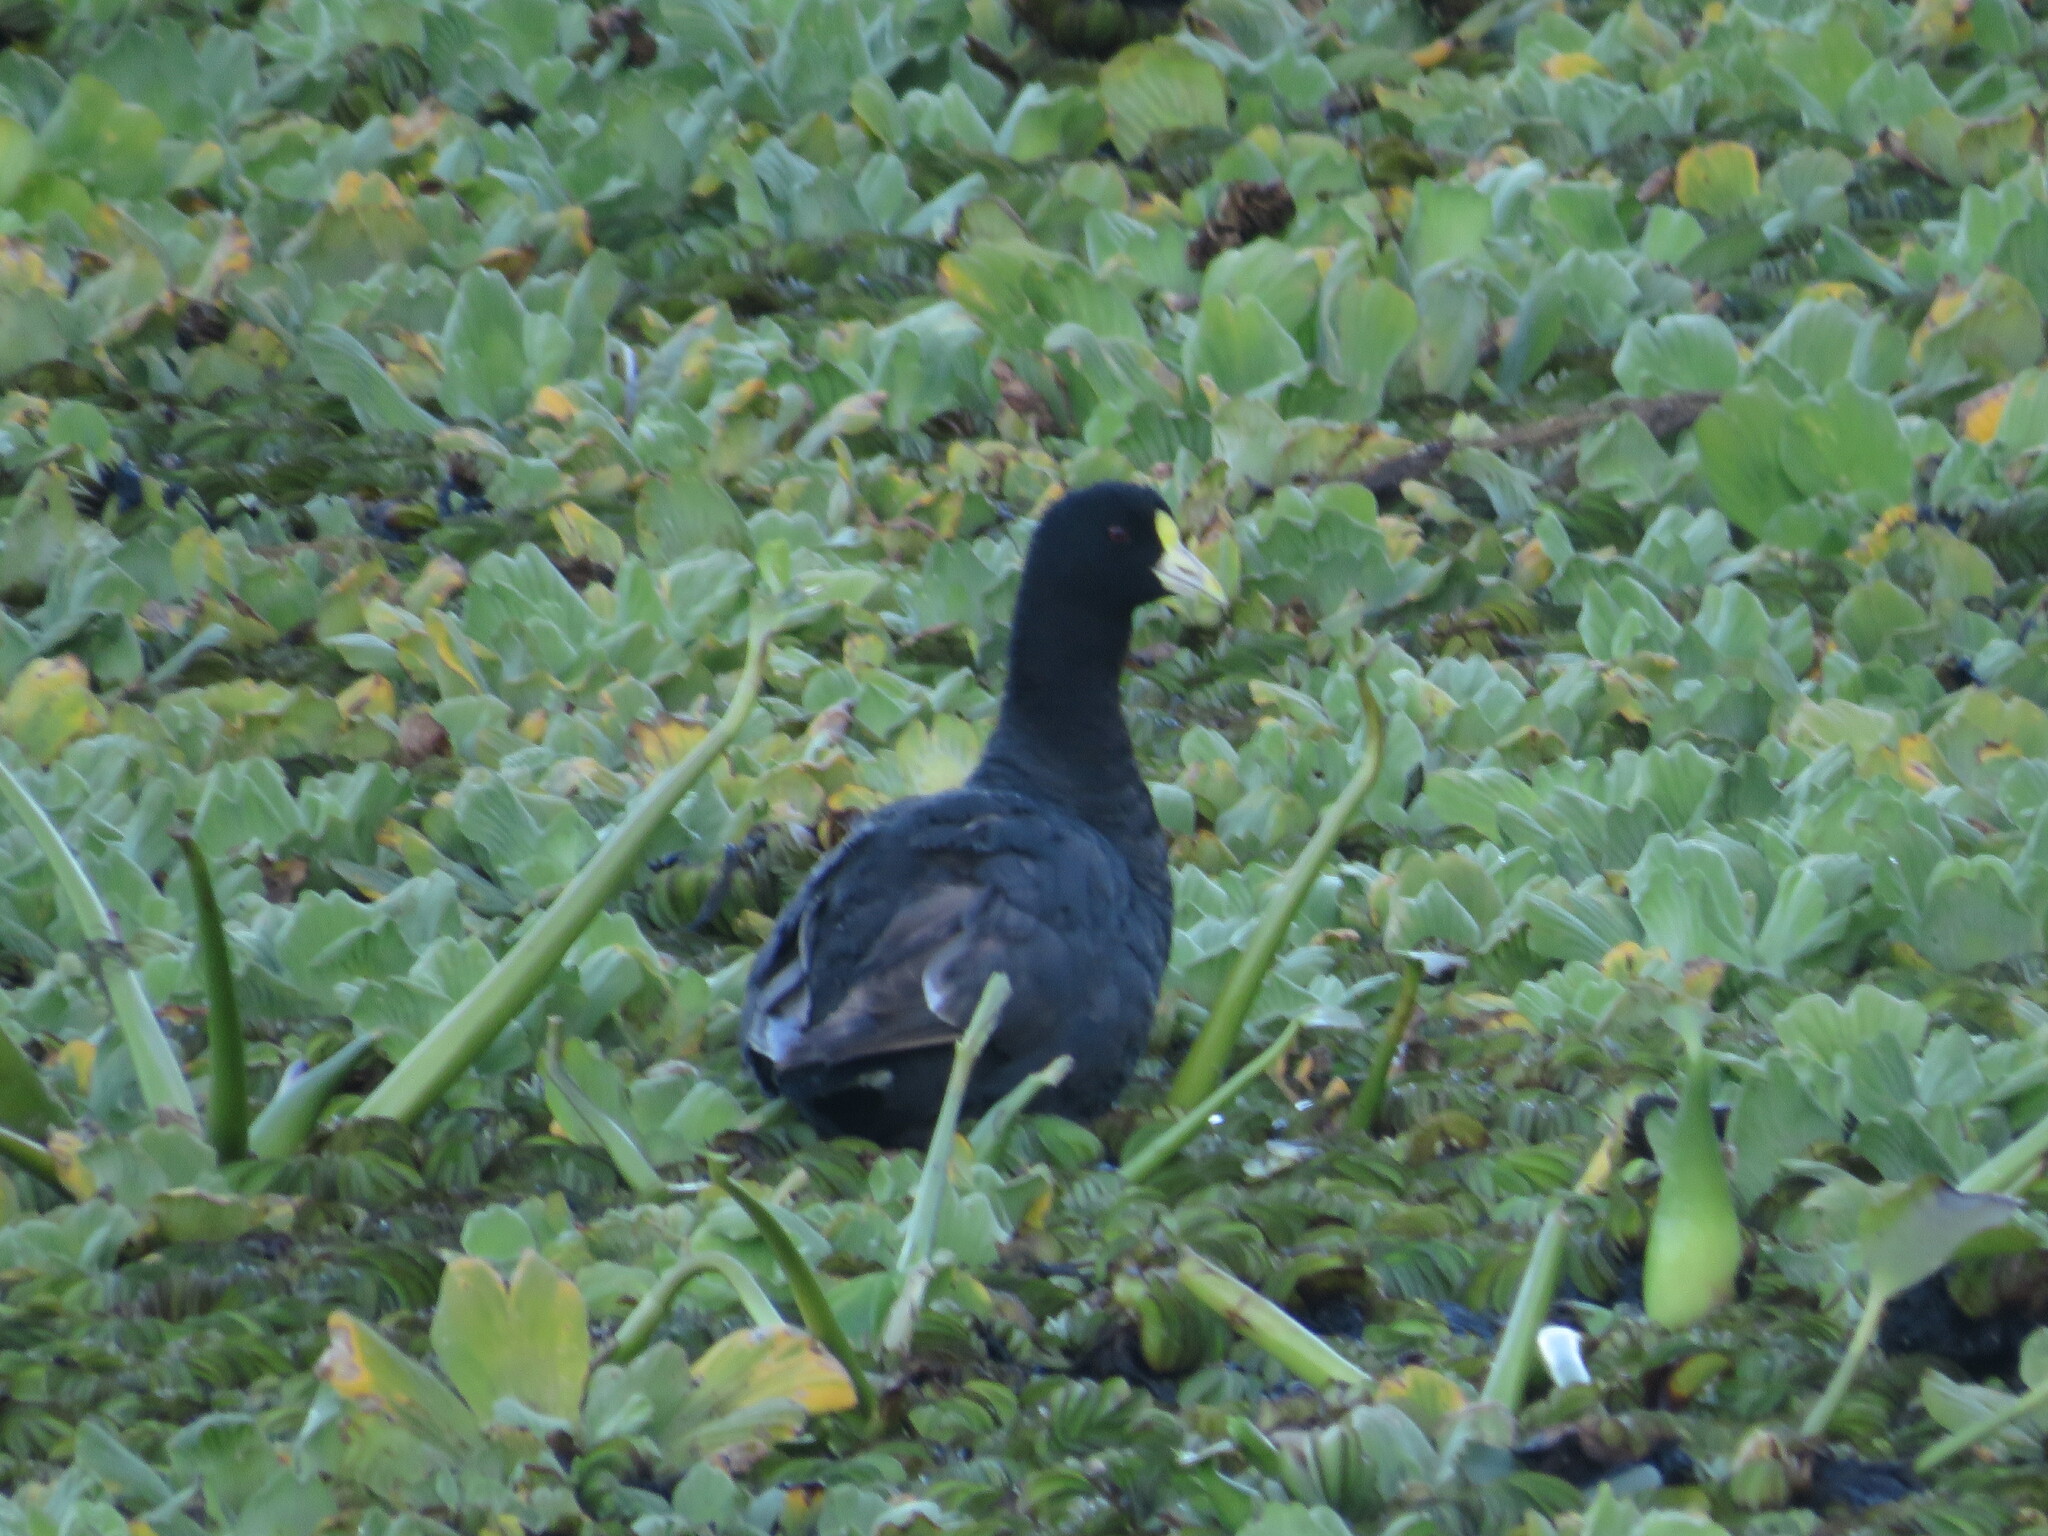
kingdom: Animalia
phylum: Chordata
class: Aves
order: Gruiformes
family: Rallidae
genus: Fulica
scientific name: Fulica leucoptera
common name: White-winged coot
